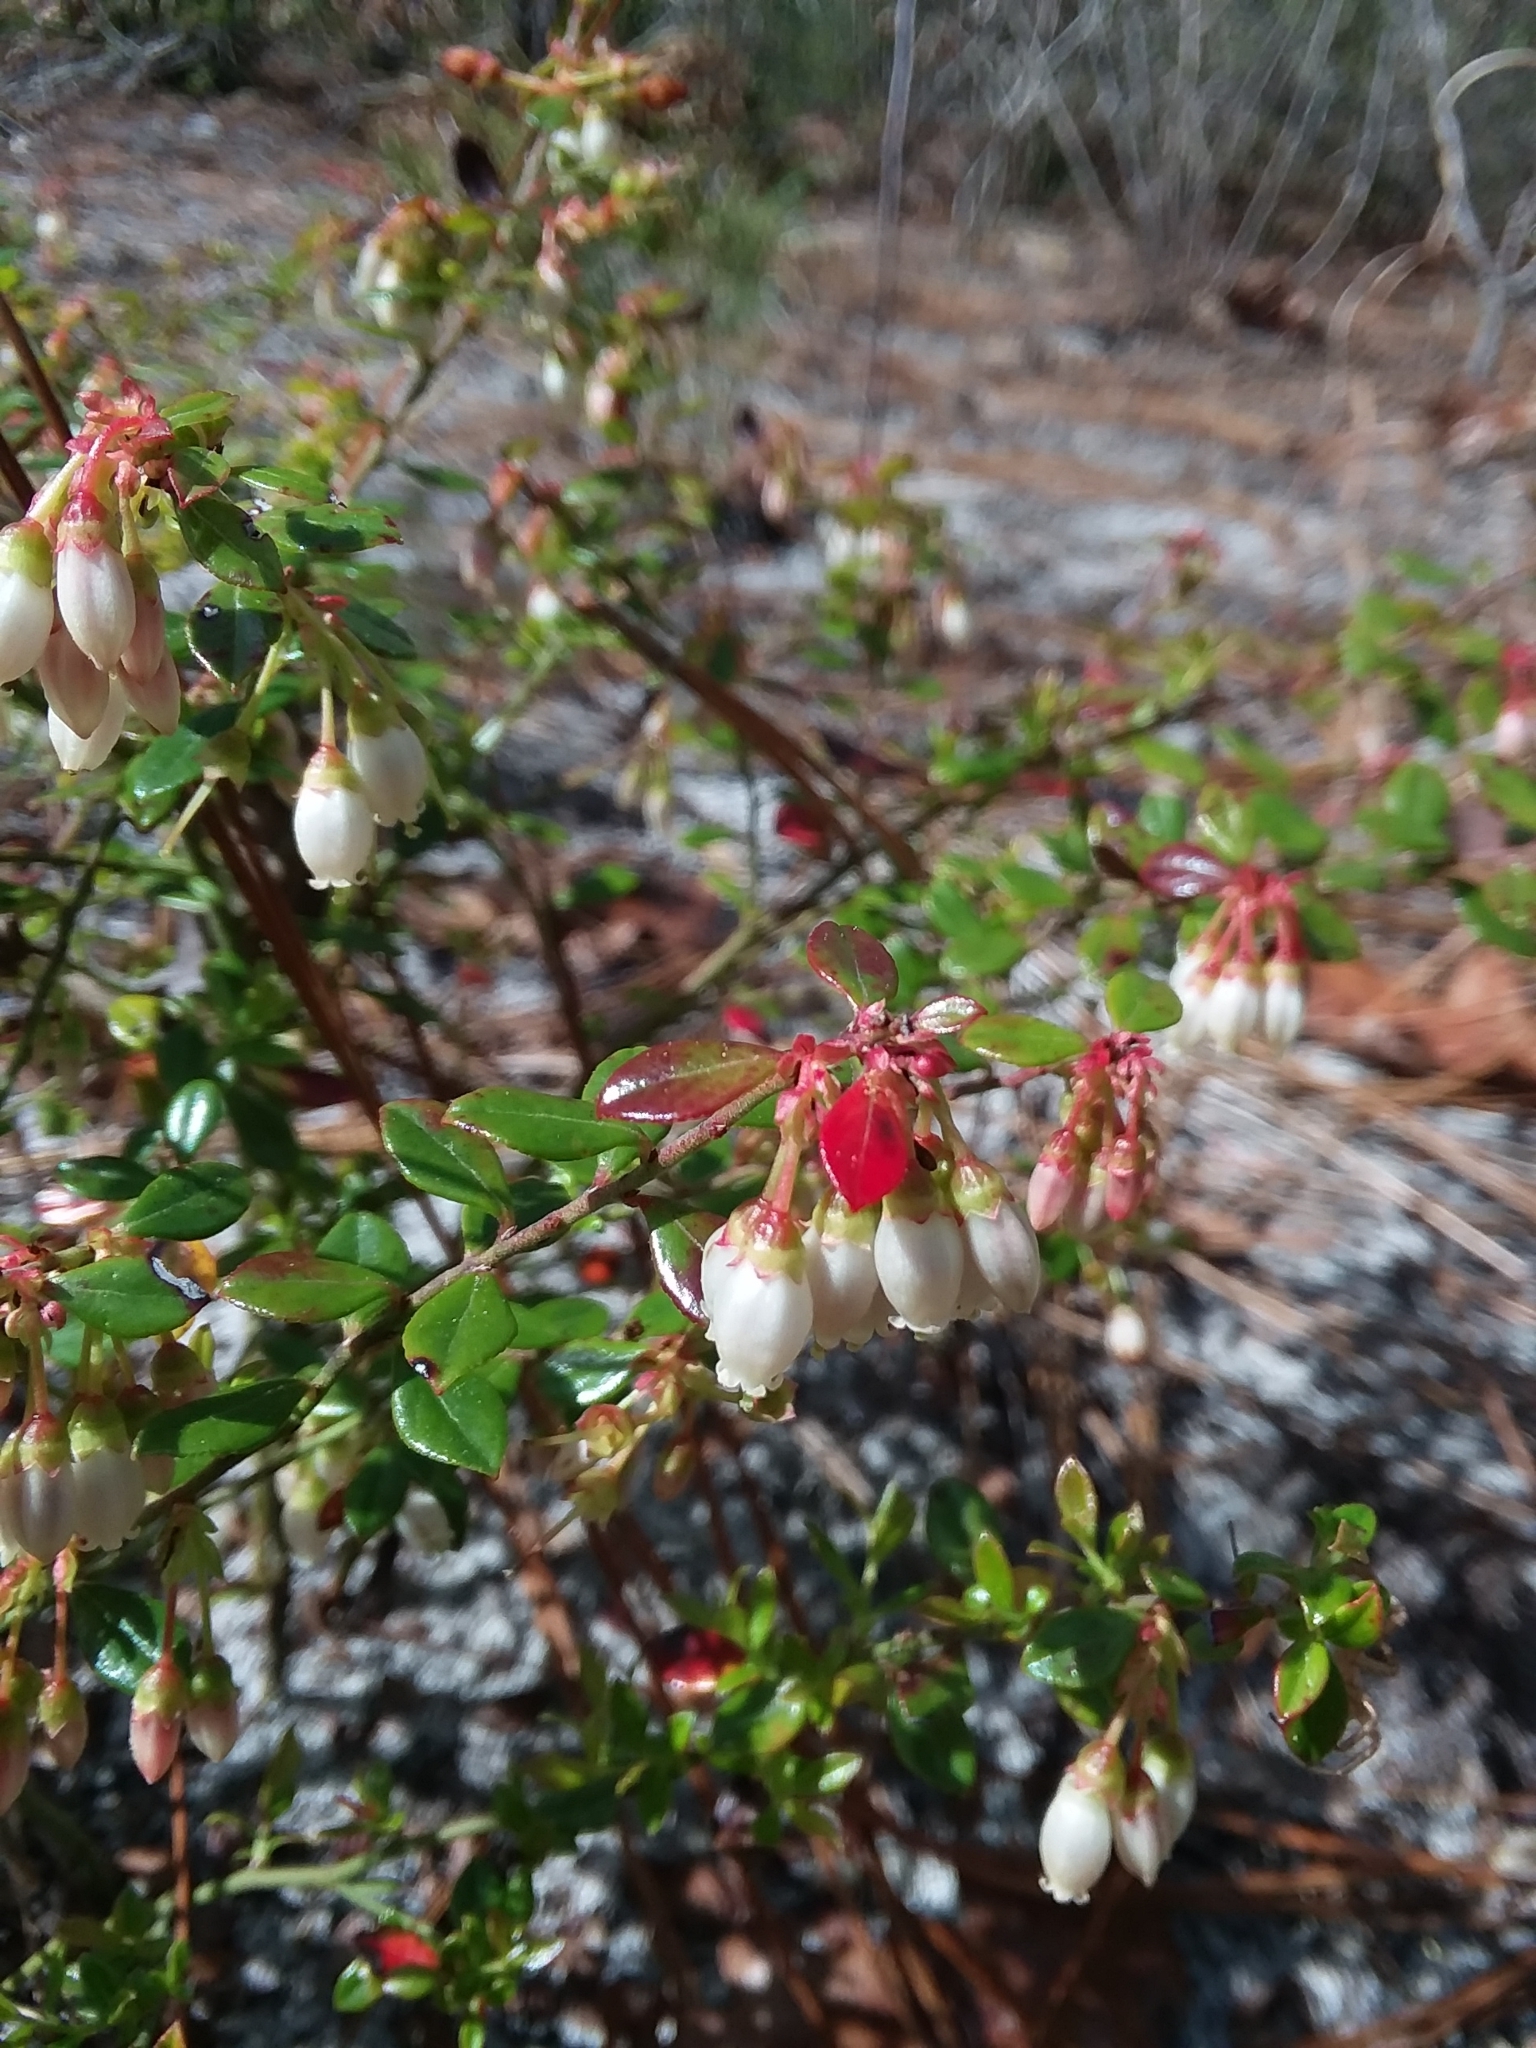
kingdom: Plantae
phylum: Tracheophyta
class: Magnoliopsida
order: Ericales
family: Ericaceae
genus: Vaccinium
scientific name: Vaccinium myrsinites
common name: Evergreen blueberry
